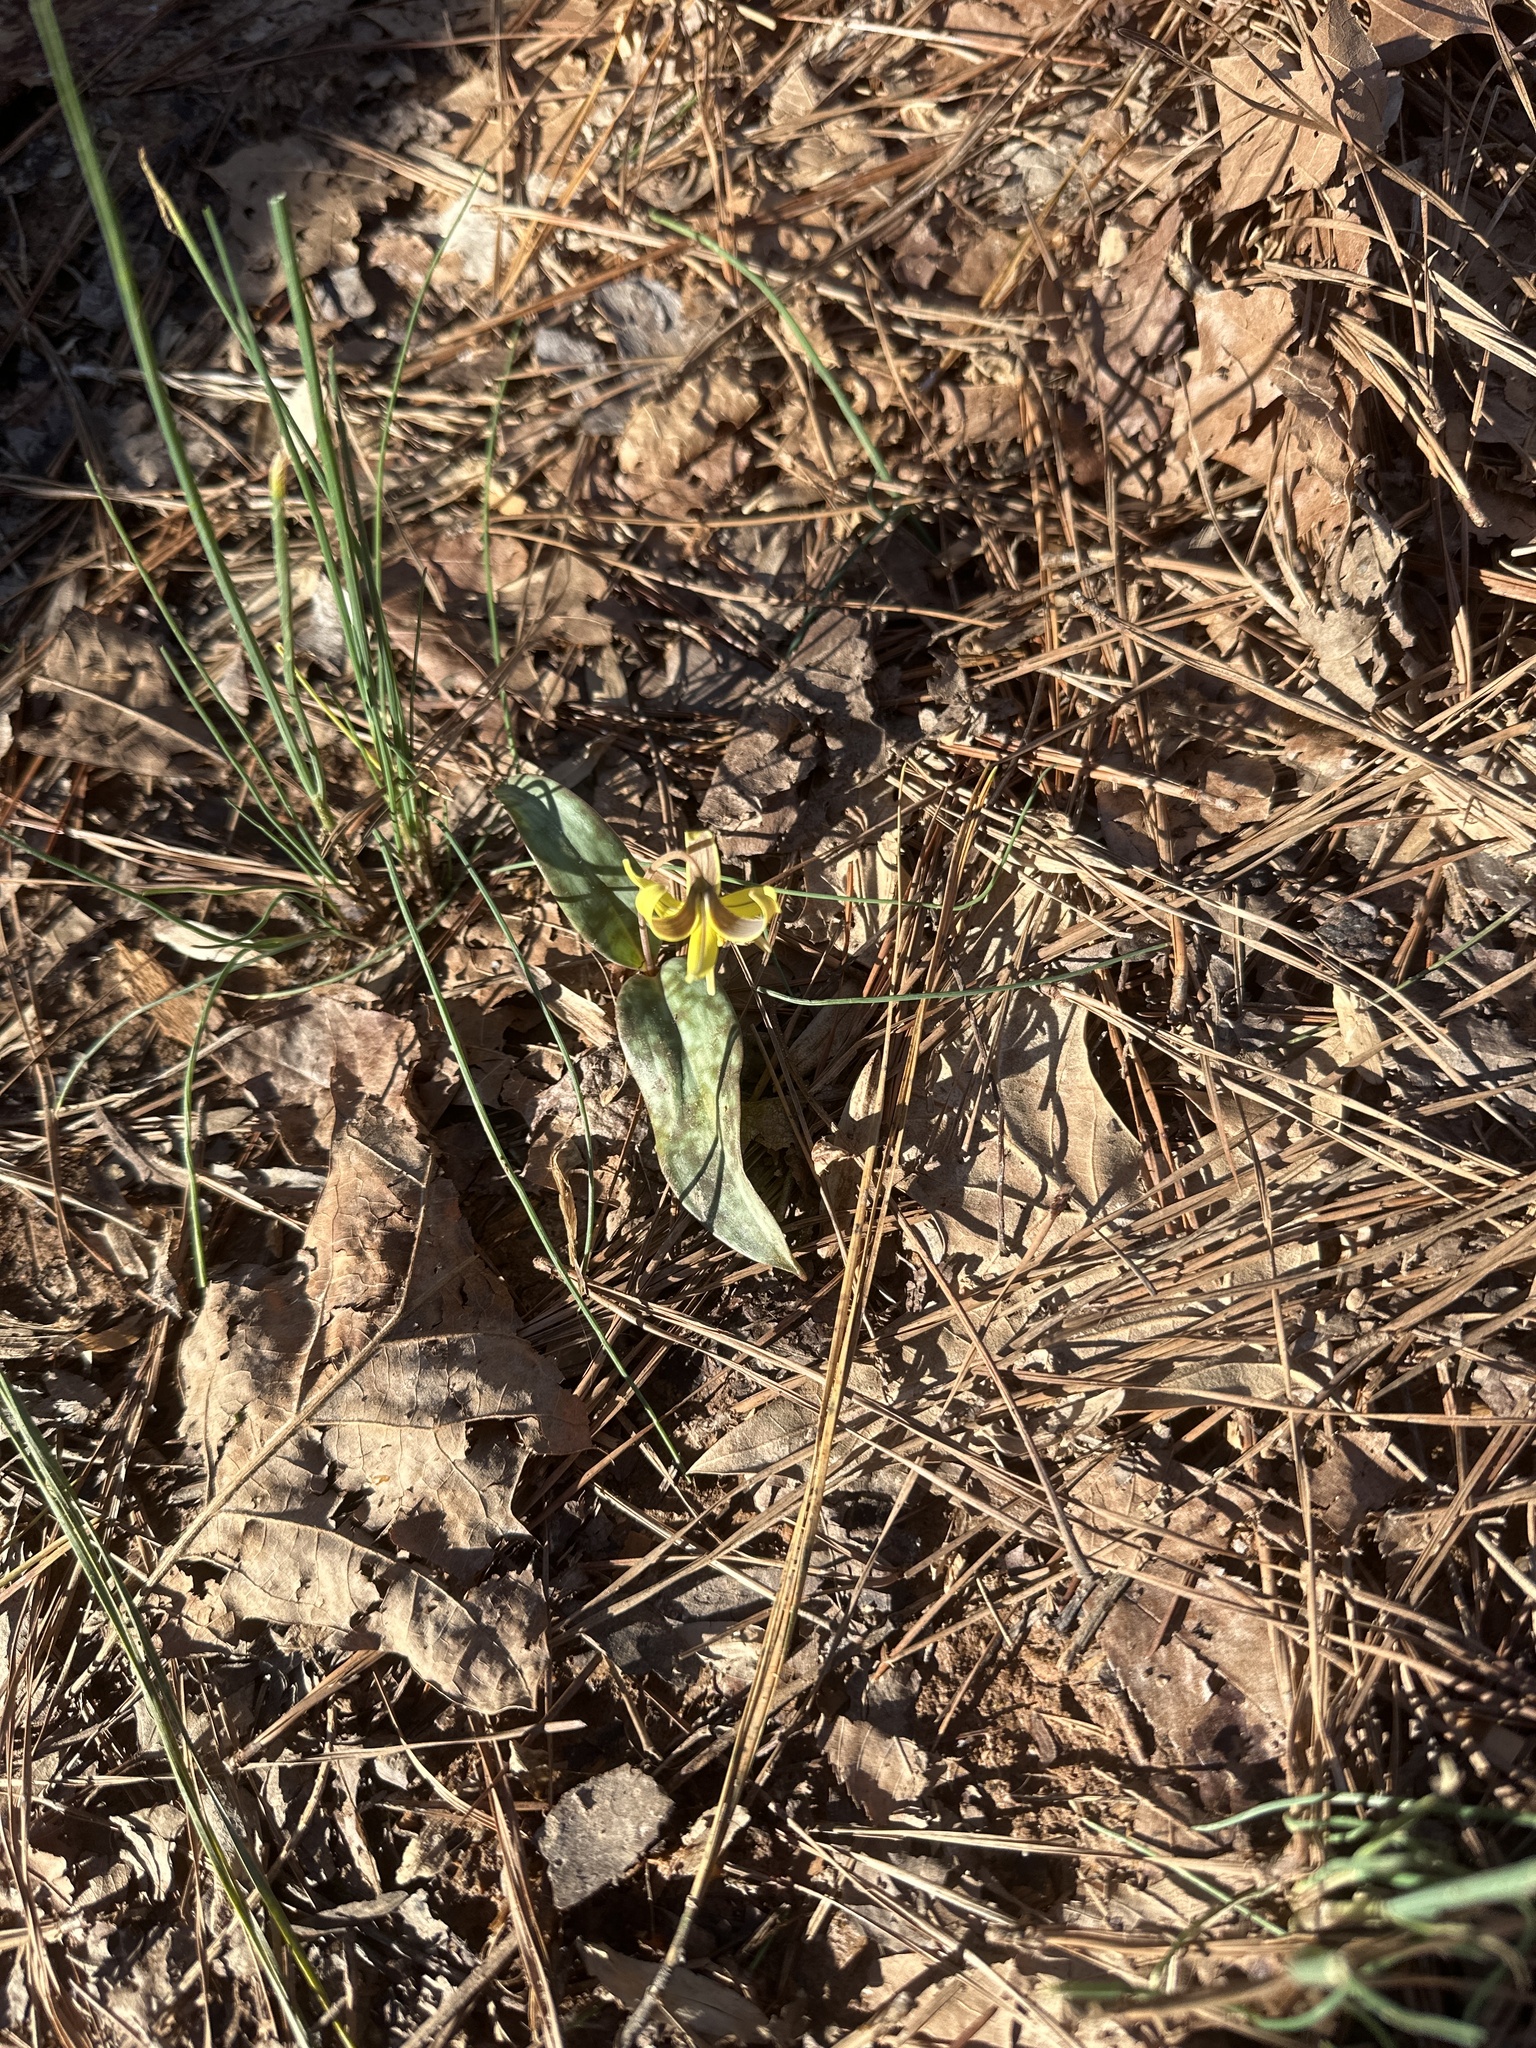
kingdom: Plantae
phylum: Tracheophyta
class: Liliopsida
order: Liliales
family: Liliaceae
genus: Erythronium
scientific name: Erythronium americanum
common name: Yellow adder's-tongue
